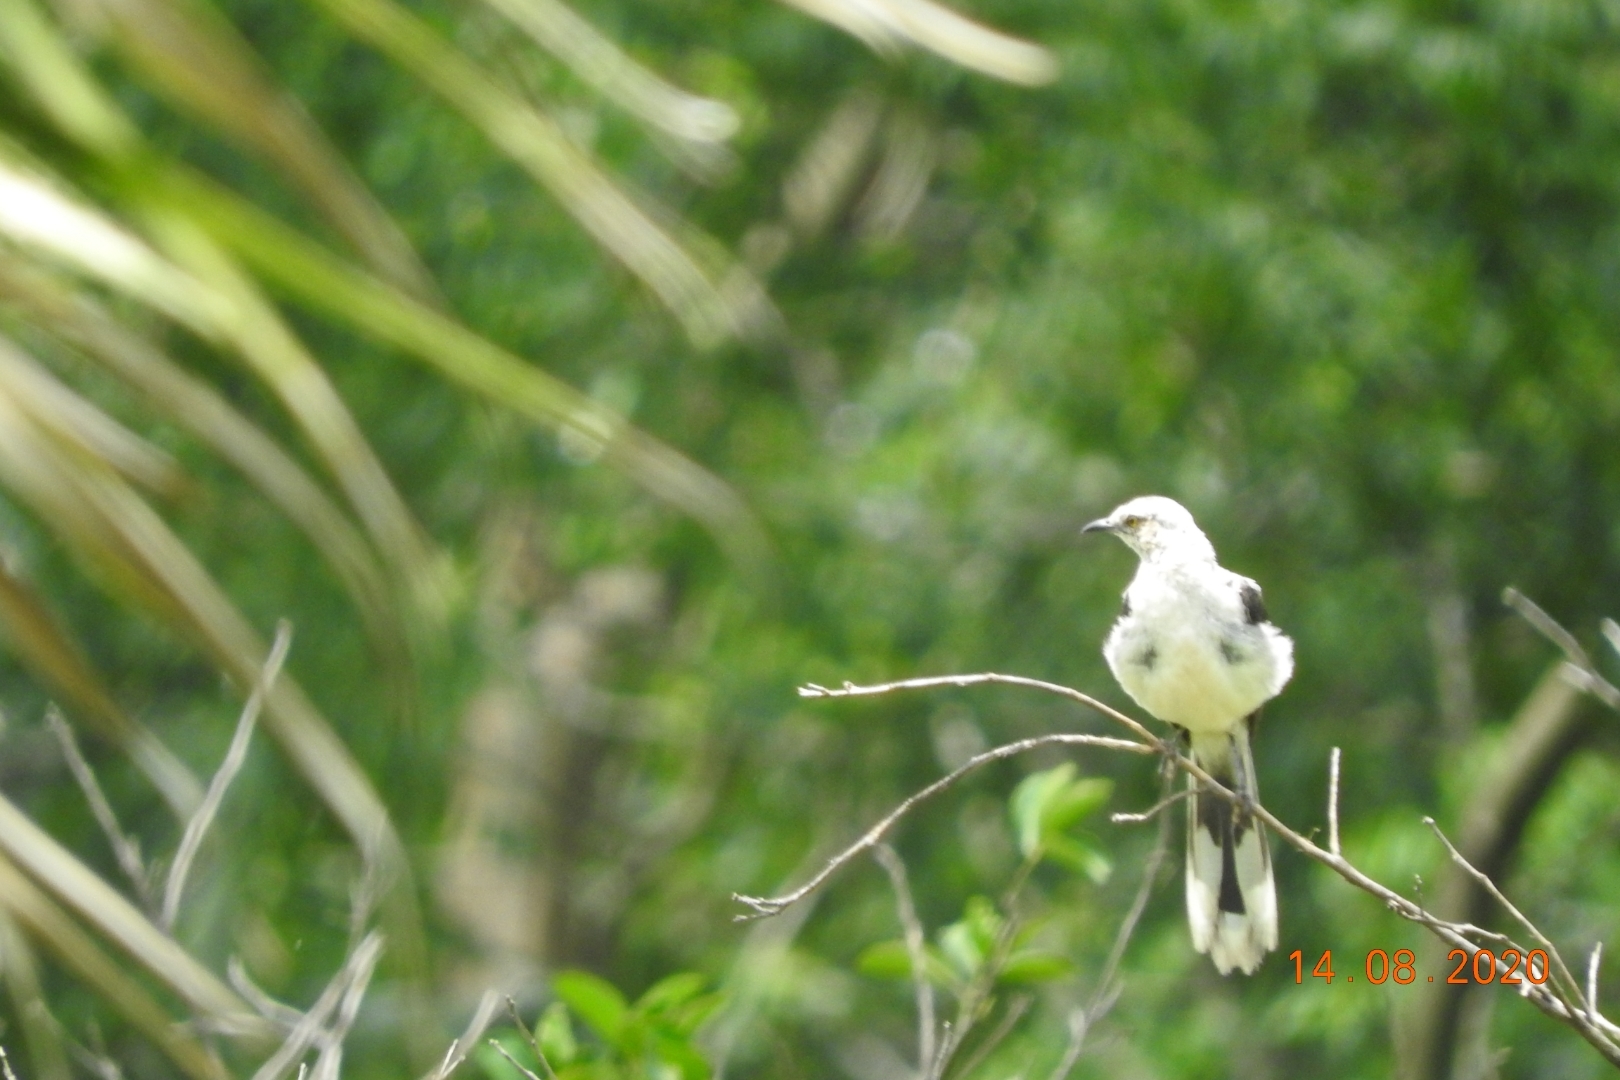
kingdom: Animalia
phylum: Chordata
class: Aves
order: Passeriformes
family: Mimidae
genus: Mimus
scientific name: Mimus gilvus
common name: Tropical mockingbird
